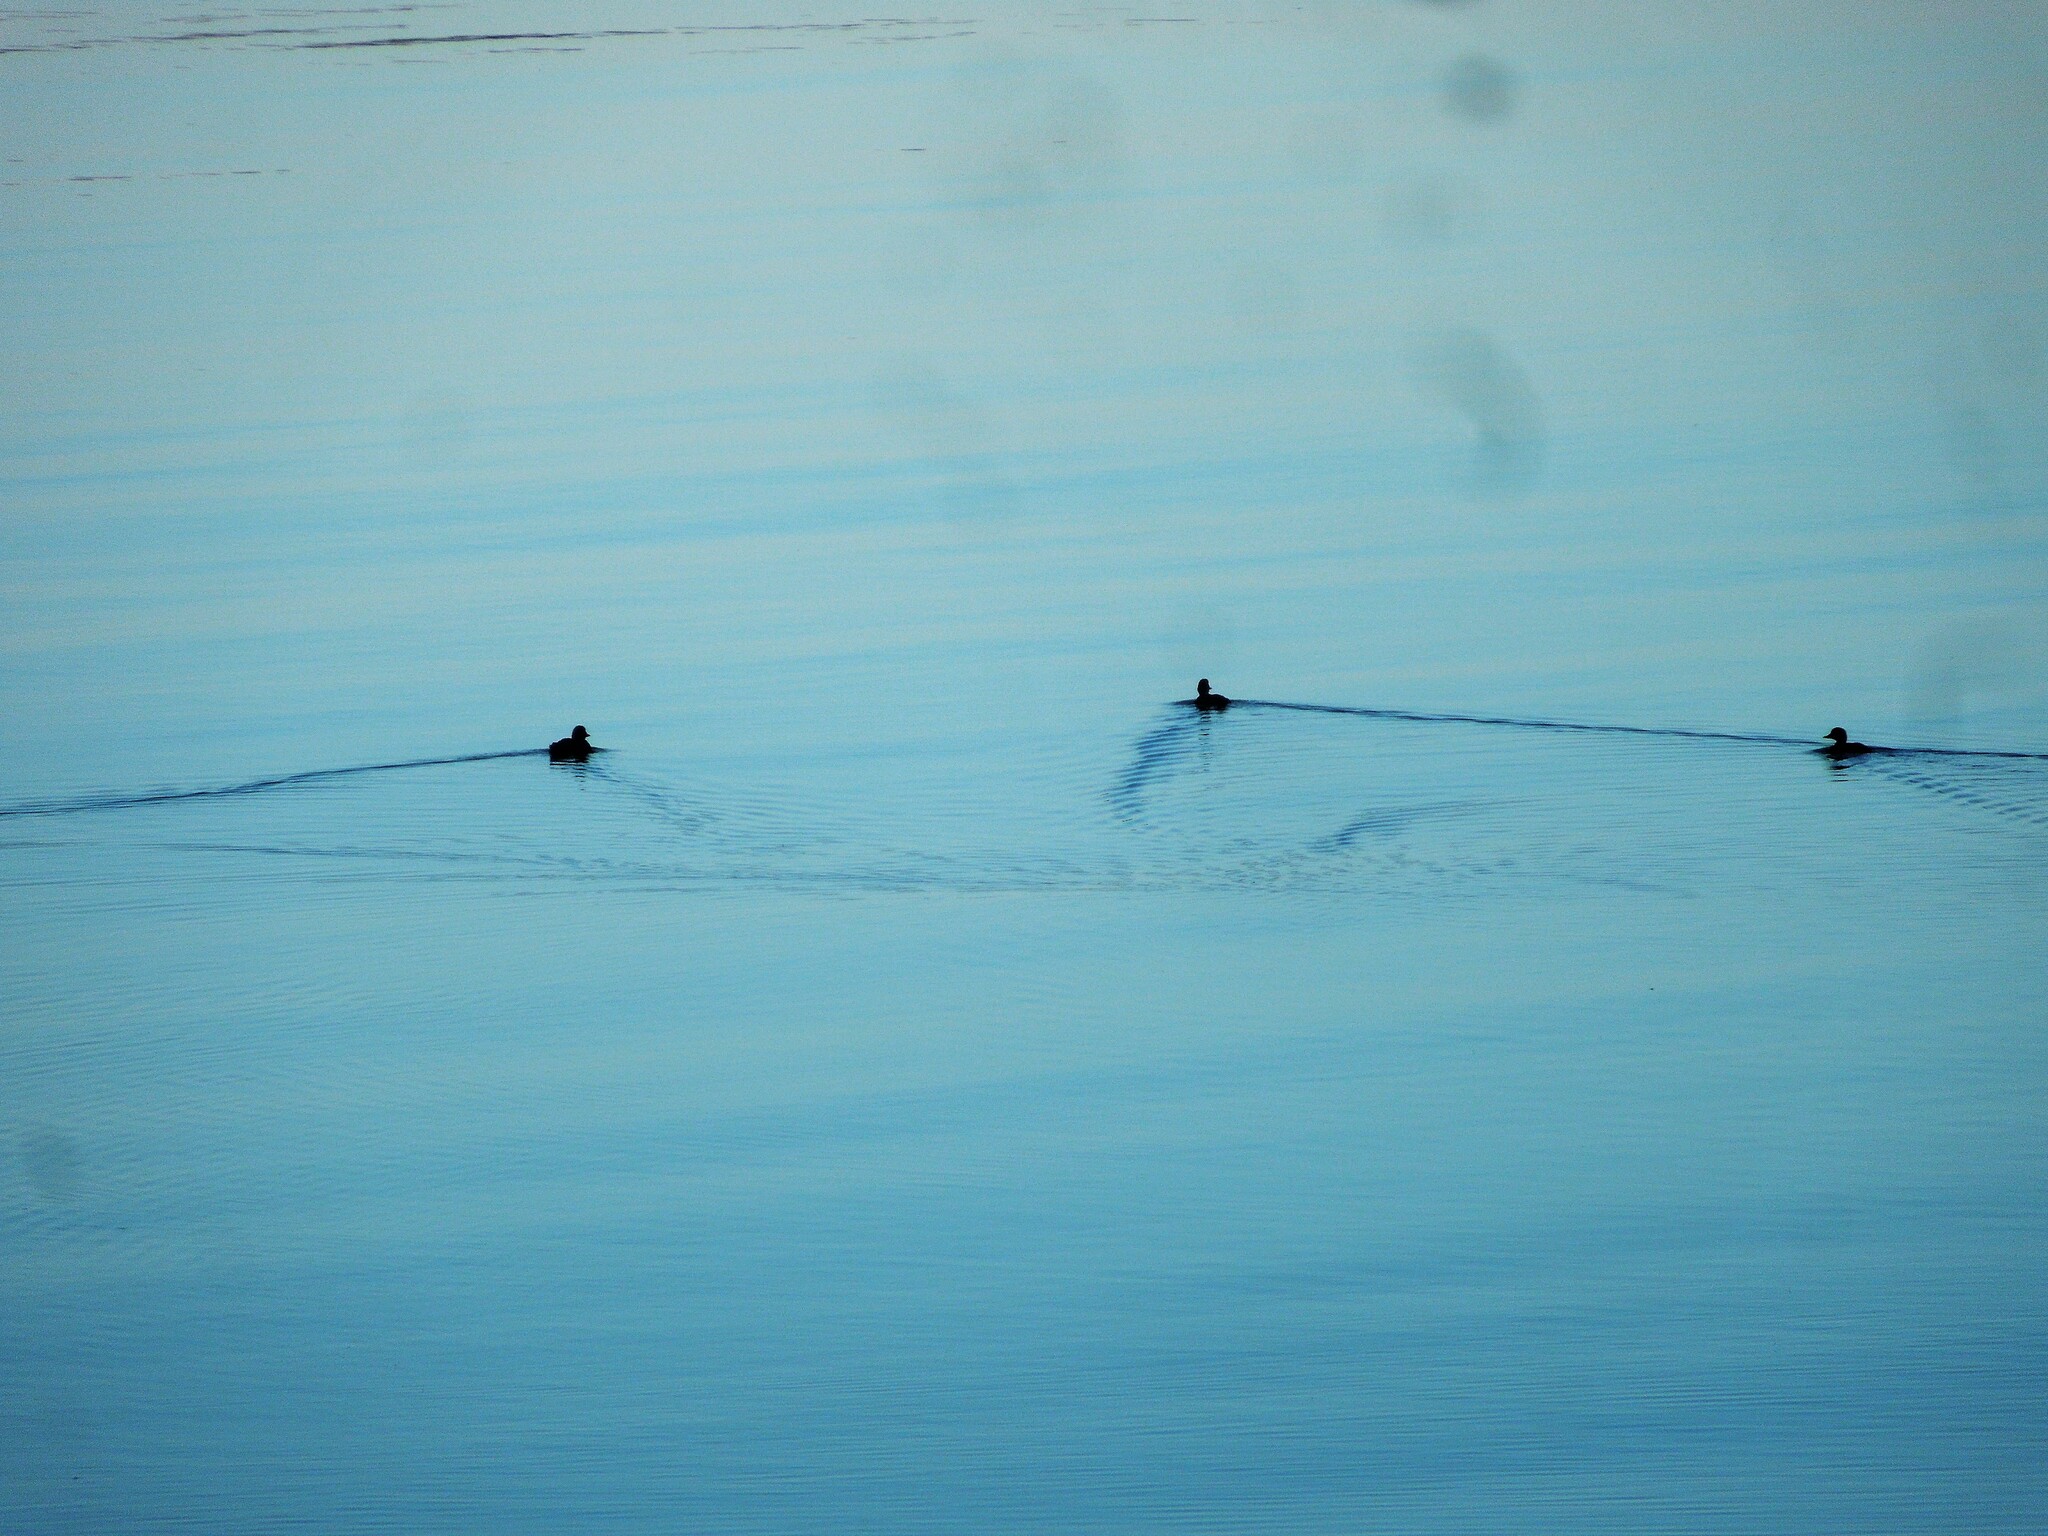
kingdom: Animalia
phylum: Chordata
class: Aves
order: Anseriformes
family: Anatidae
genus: Melanitta
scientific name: Melanitta americana
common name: Black scoter
